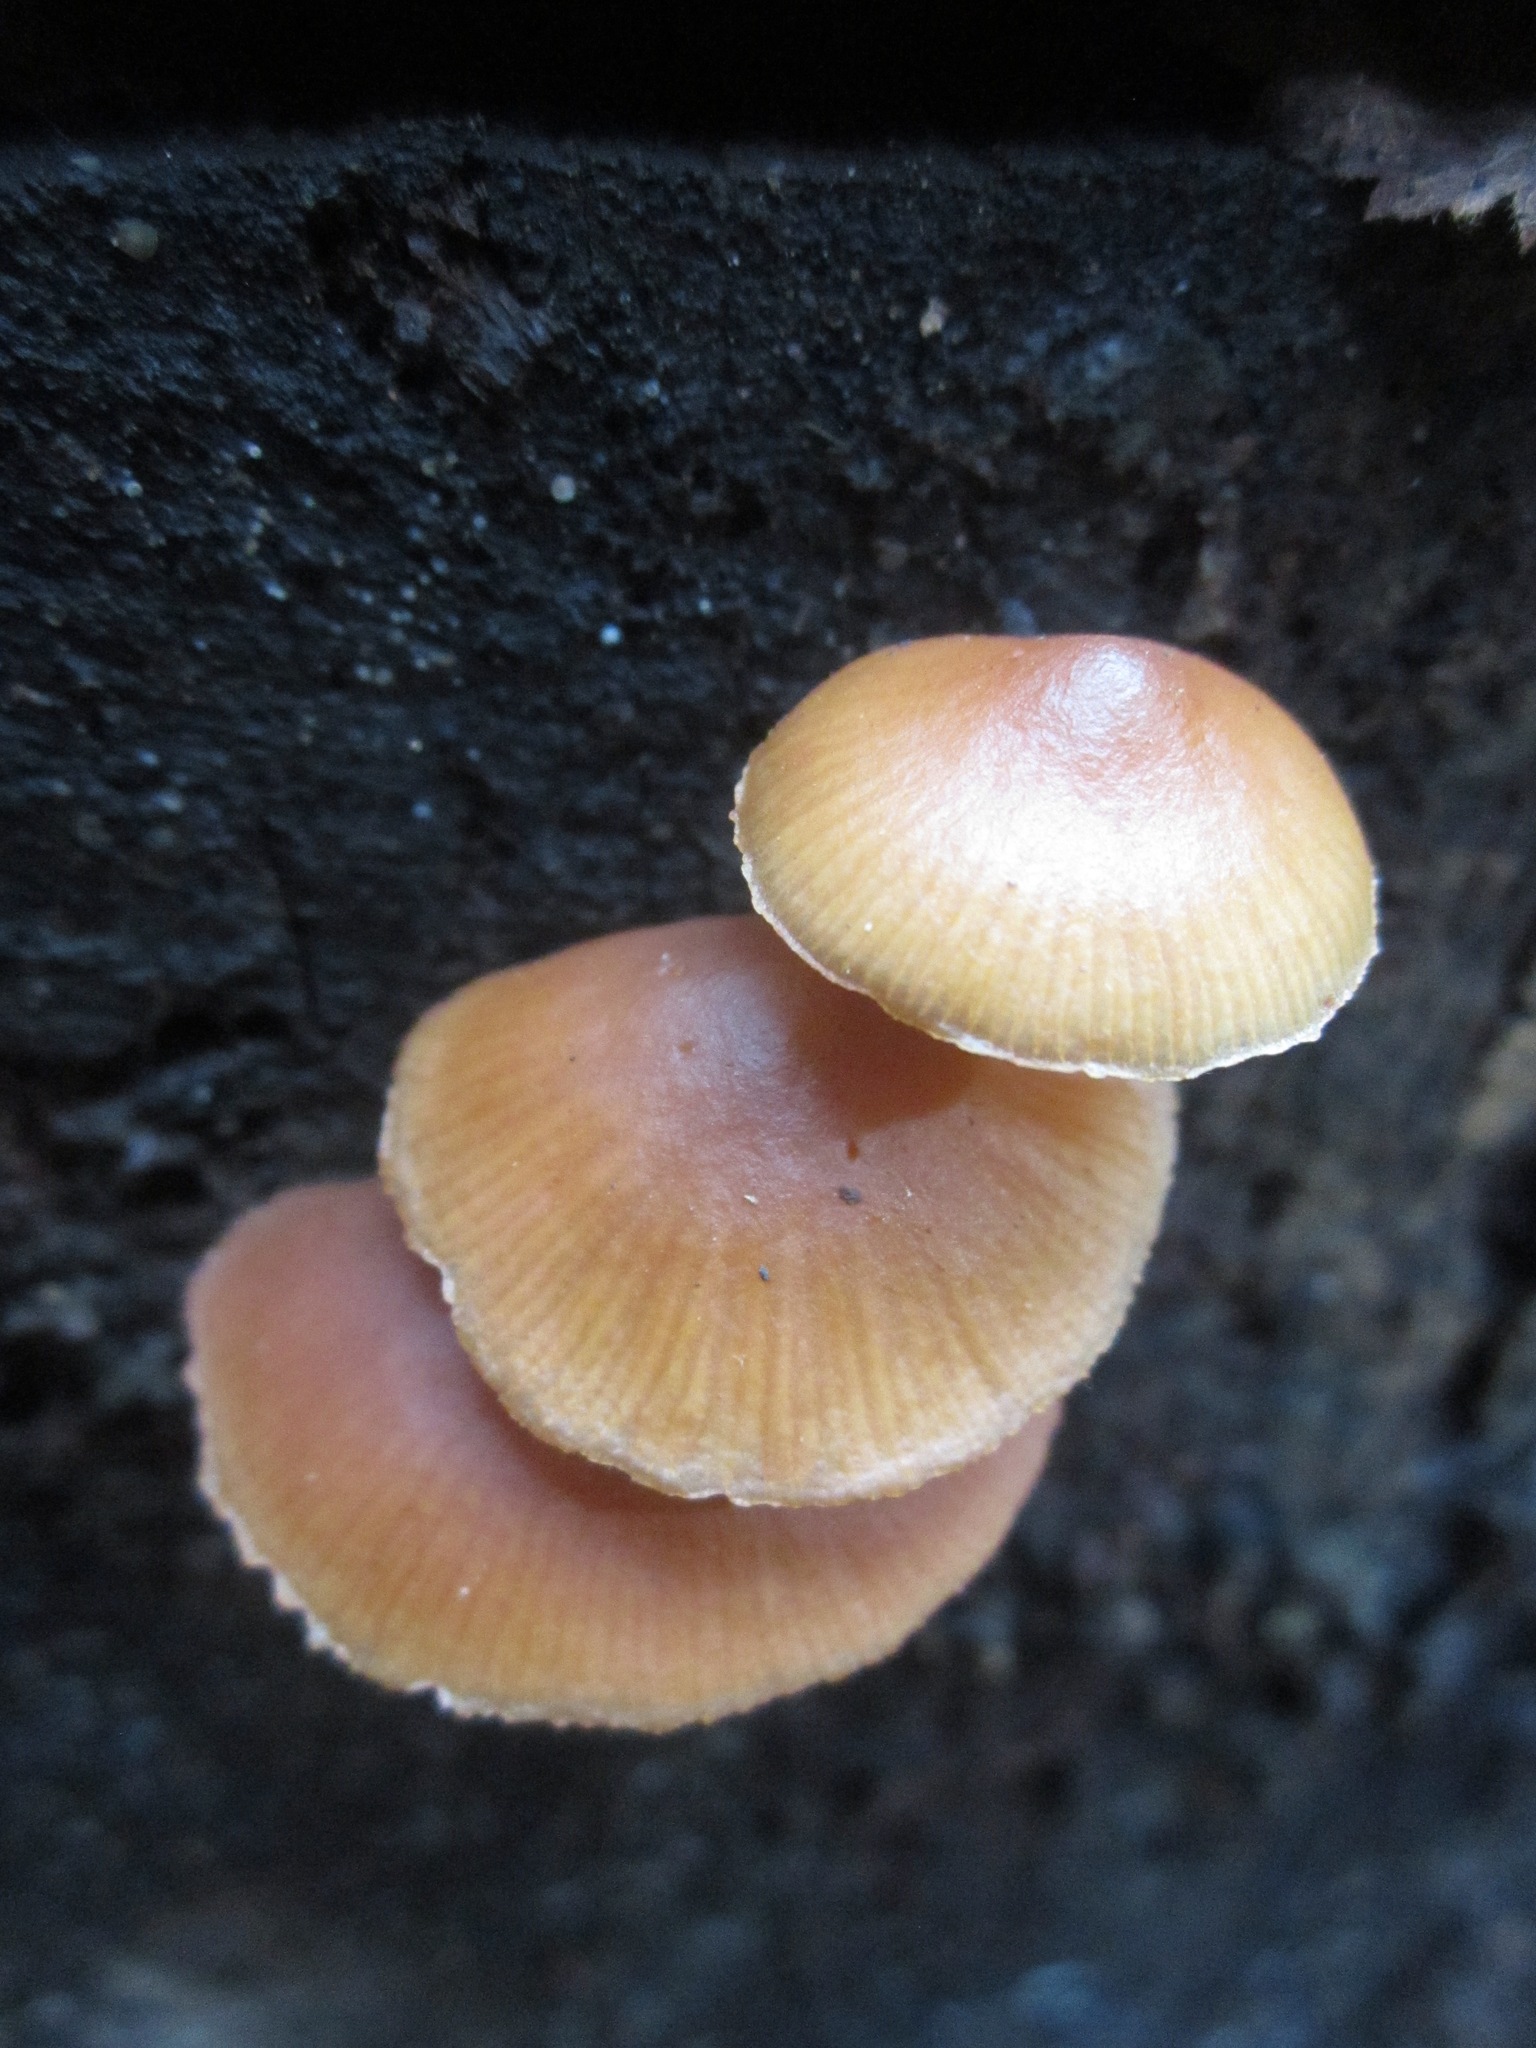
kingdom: Fungi
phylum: Basidiomycota
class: Agaricomycetes
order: Agaricales
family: Hymenogastraceae
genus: Galerina
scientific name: Galerina marginata
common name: Funeral bell
